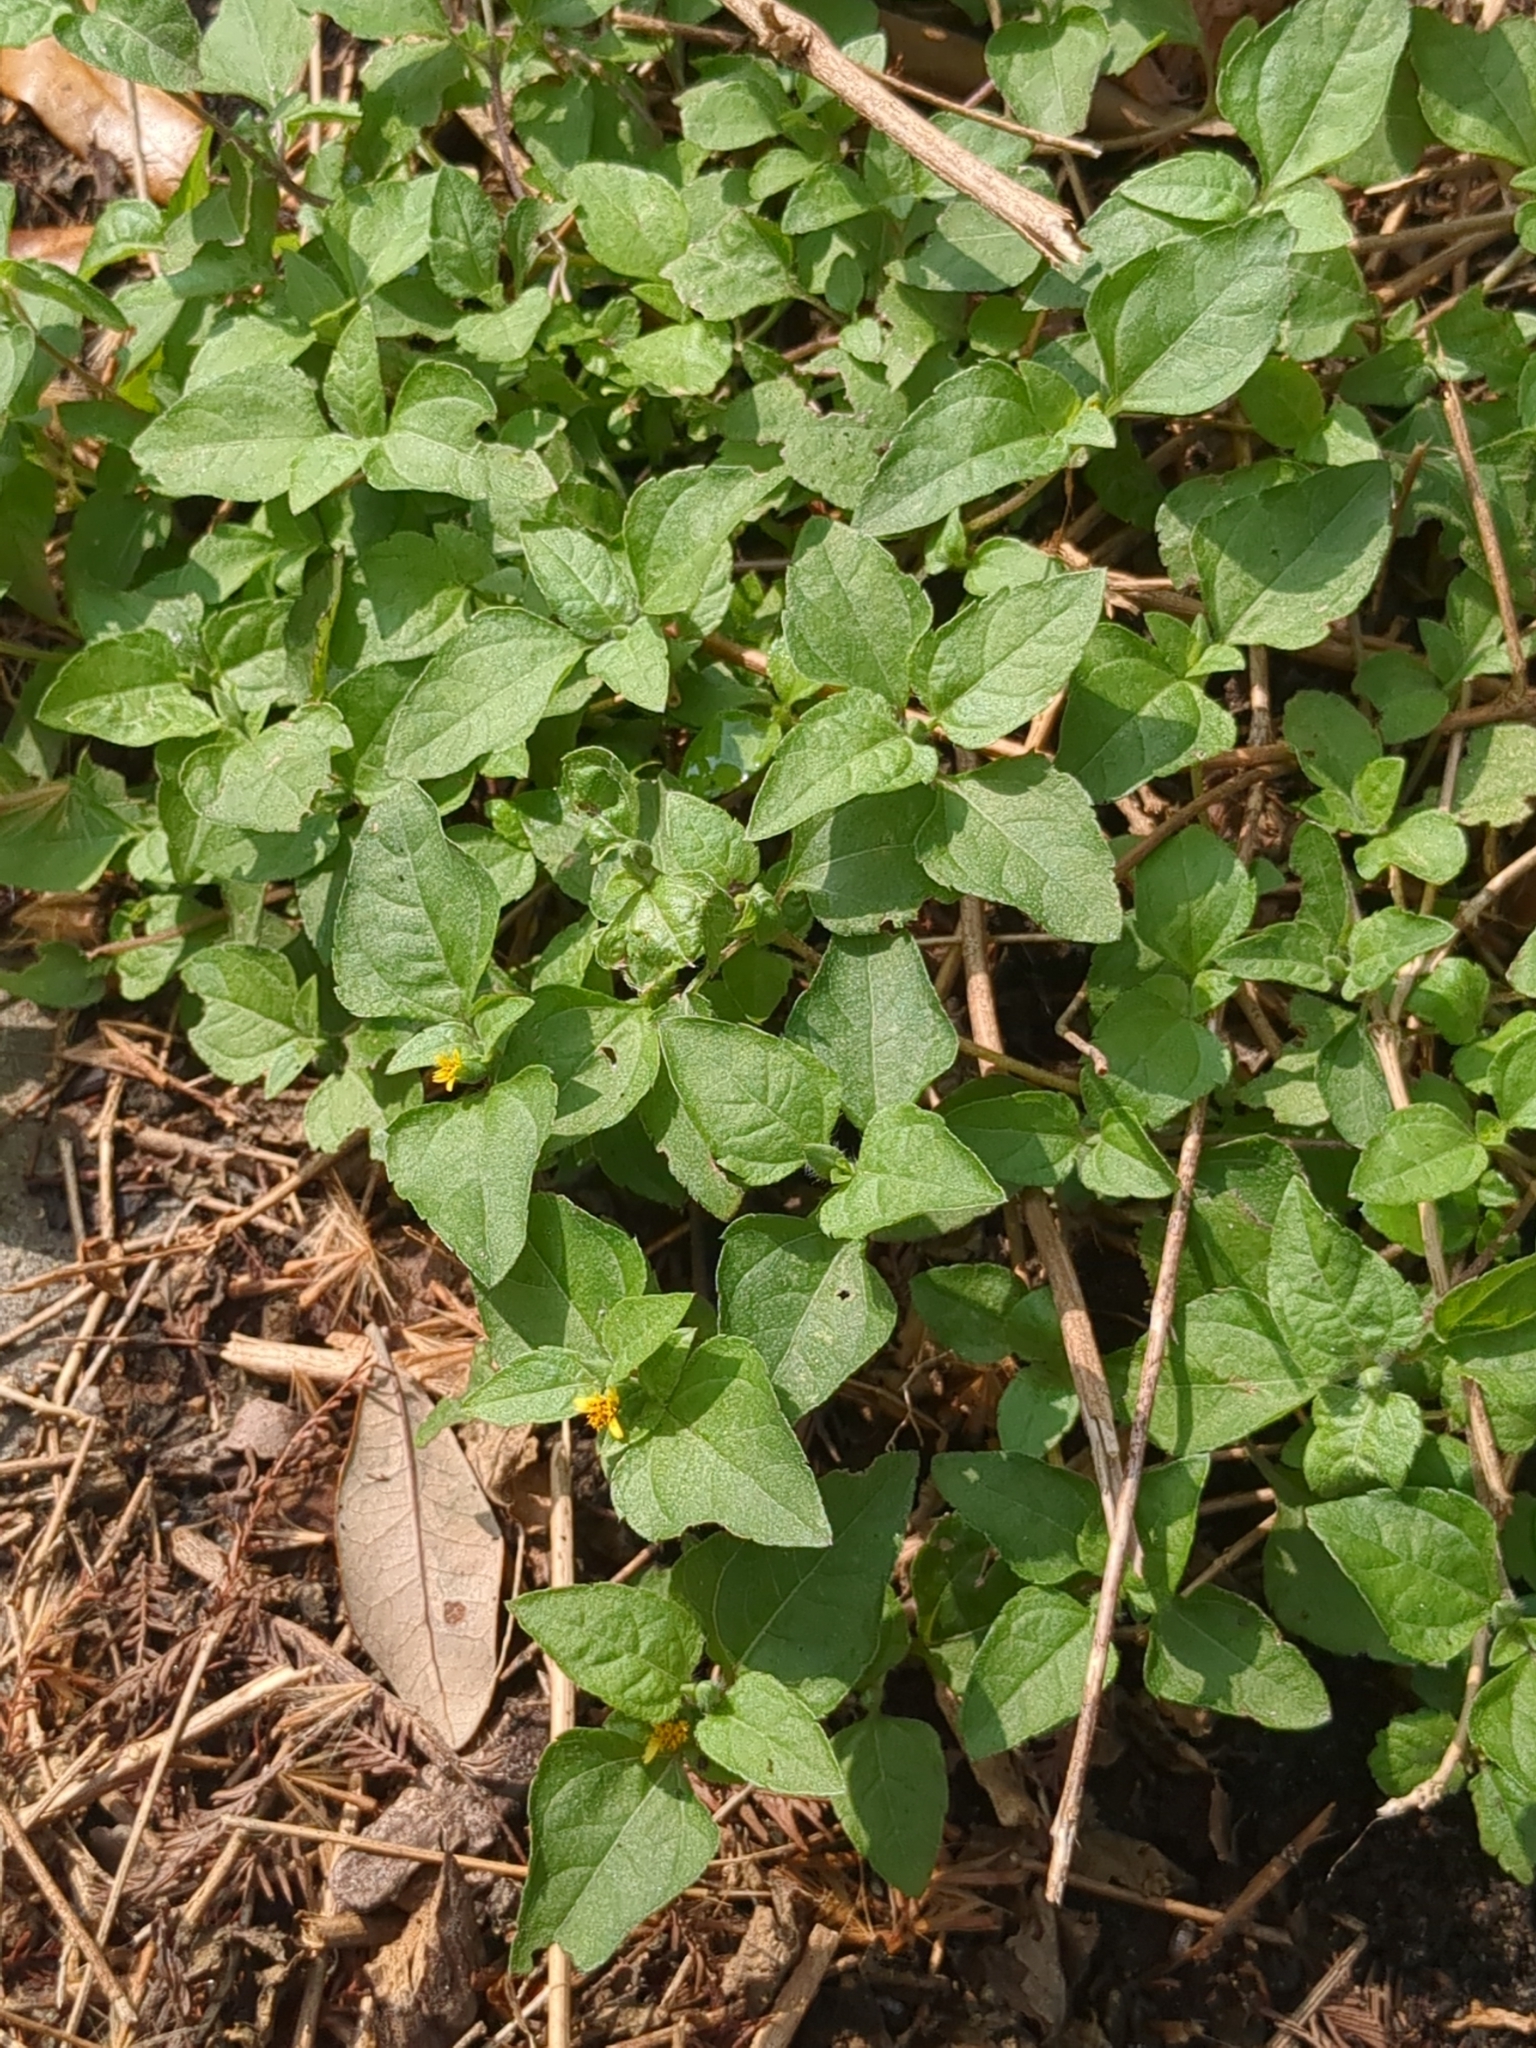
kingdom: Plantae
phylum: Tracheophyta
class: Magnoliopsida
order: Asterales
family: Asteraceae
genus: Calyptocarpus
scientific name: Calyptocarpus vialis
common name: Straggler daisy
